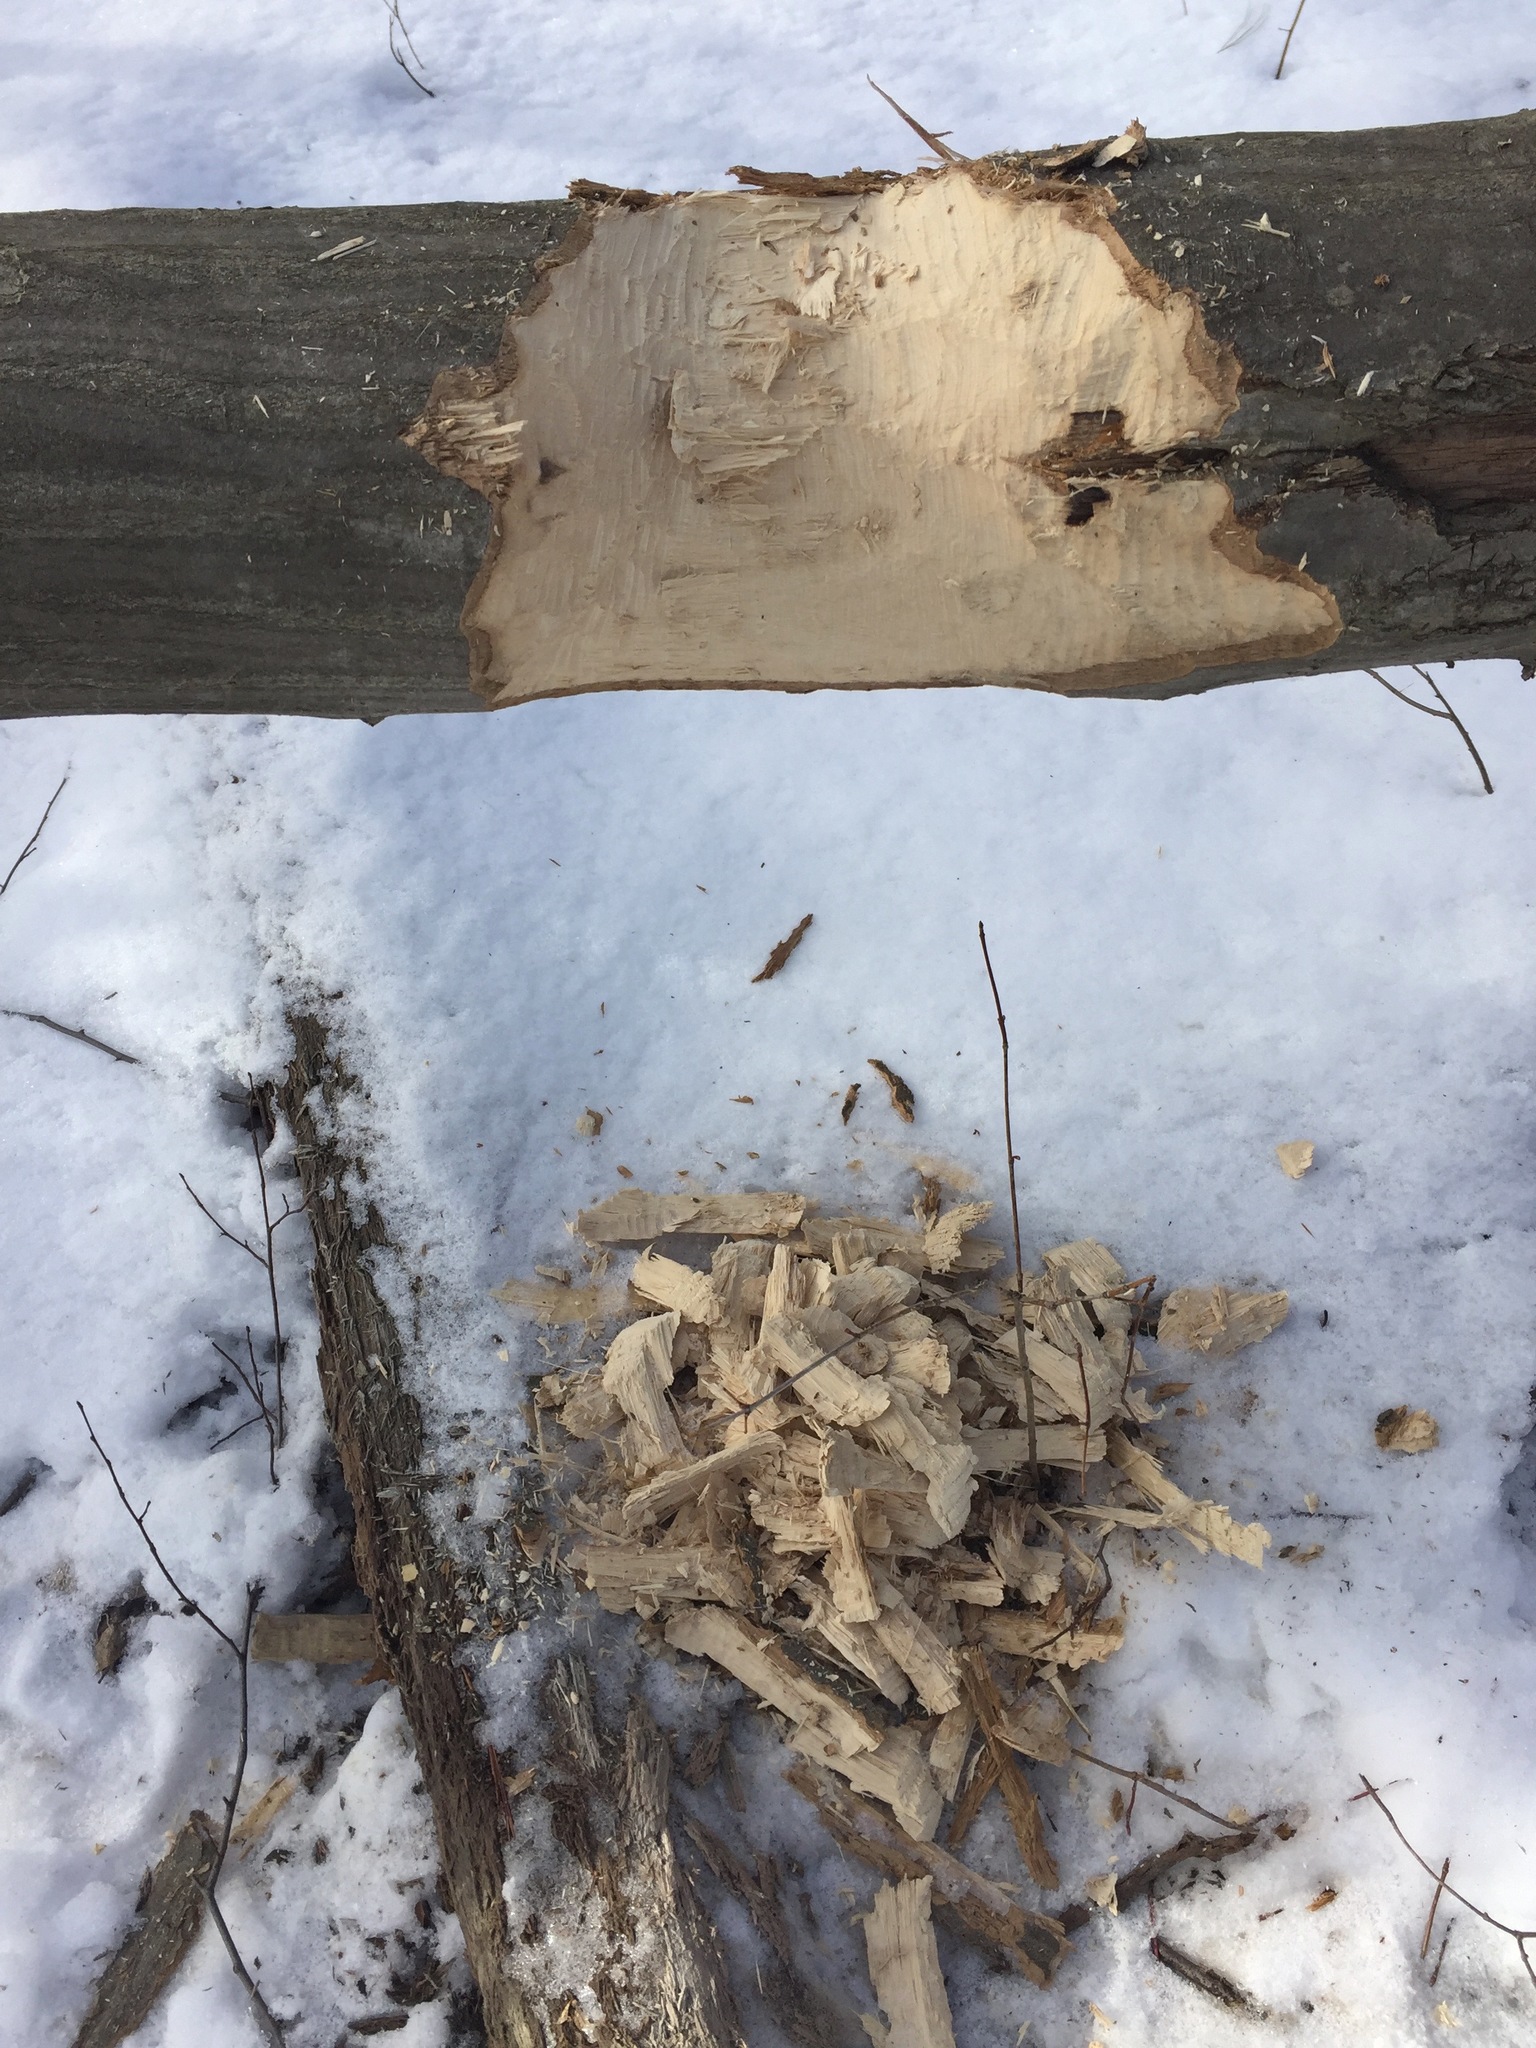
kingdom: Animalia
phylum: Chordata
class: Mammalia
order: Rodentia
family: Castoridae
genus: Castor
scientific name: Castor canadensis
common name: American beaver
